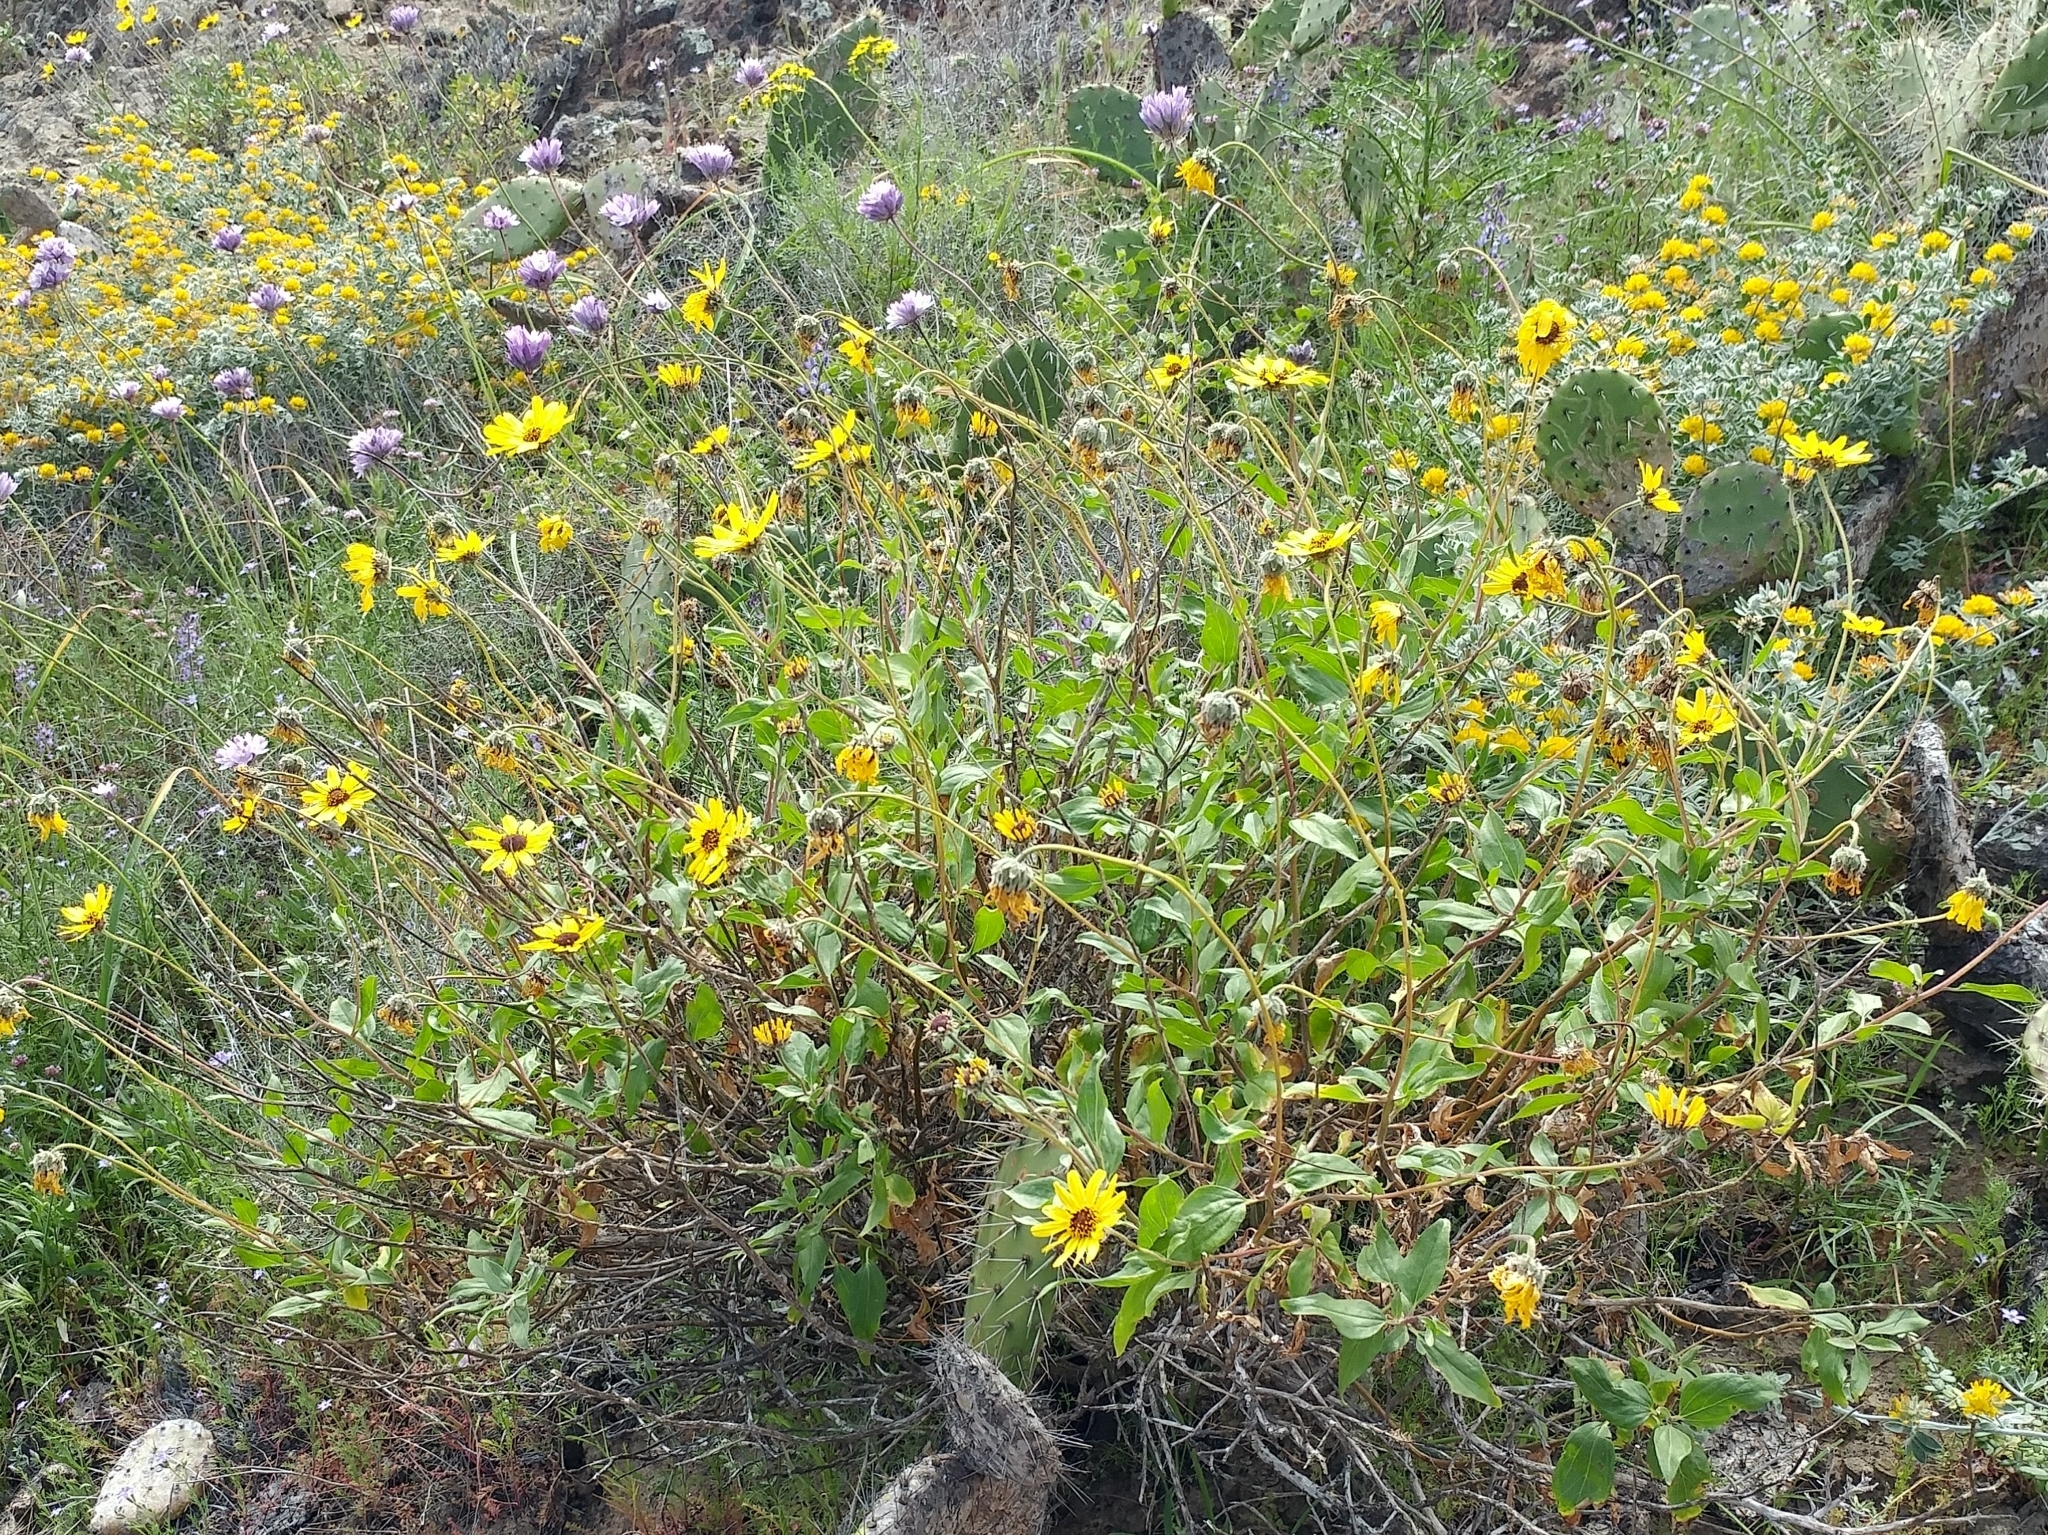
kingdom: Plantae
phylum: Tracheophyta
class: Magnoliopsida
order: Asterales
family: Asteraceae
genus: Encelia
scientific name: Encelia californica
